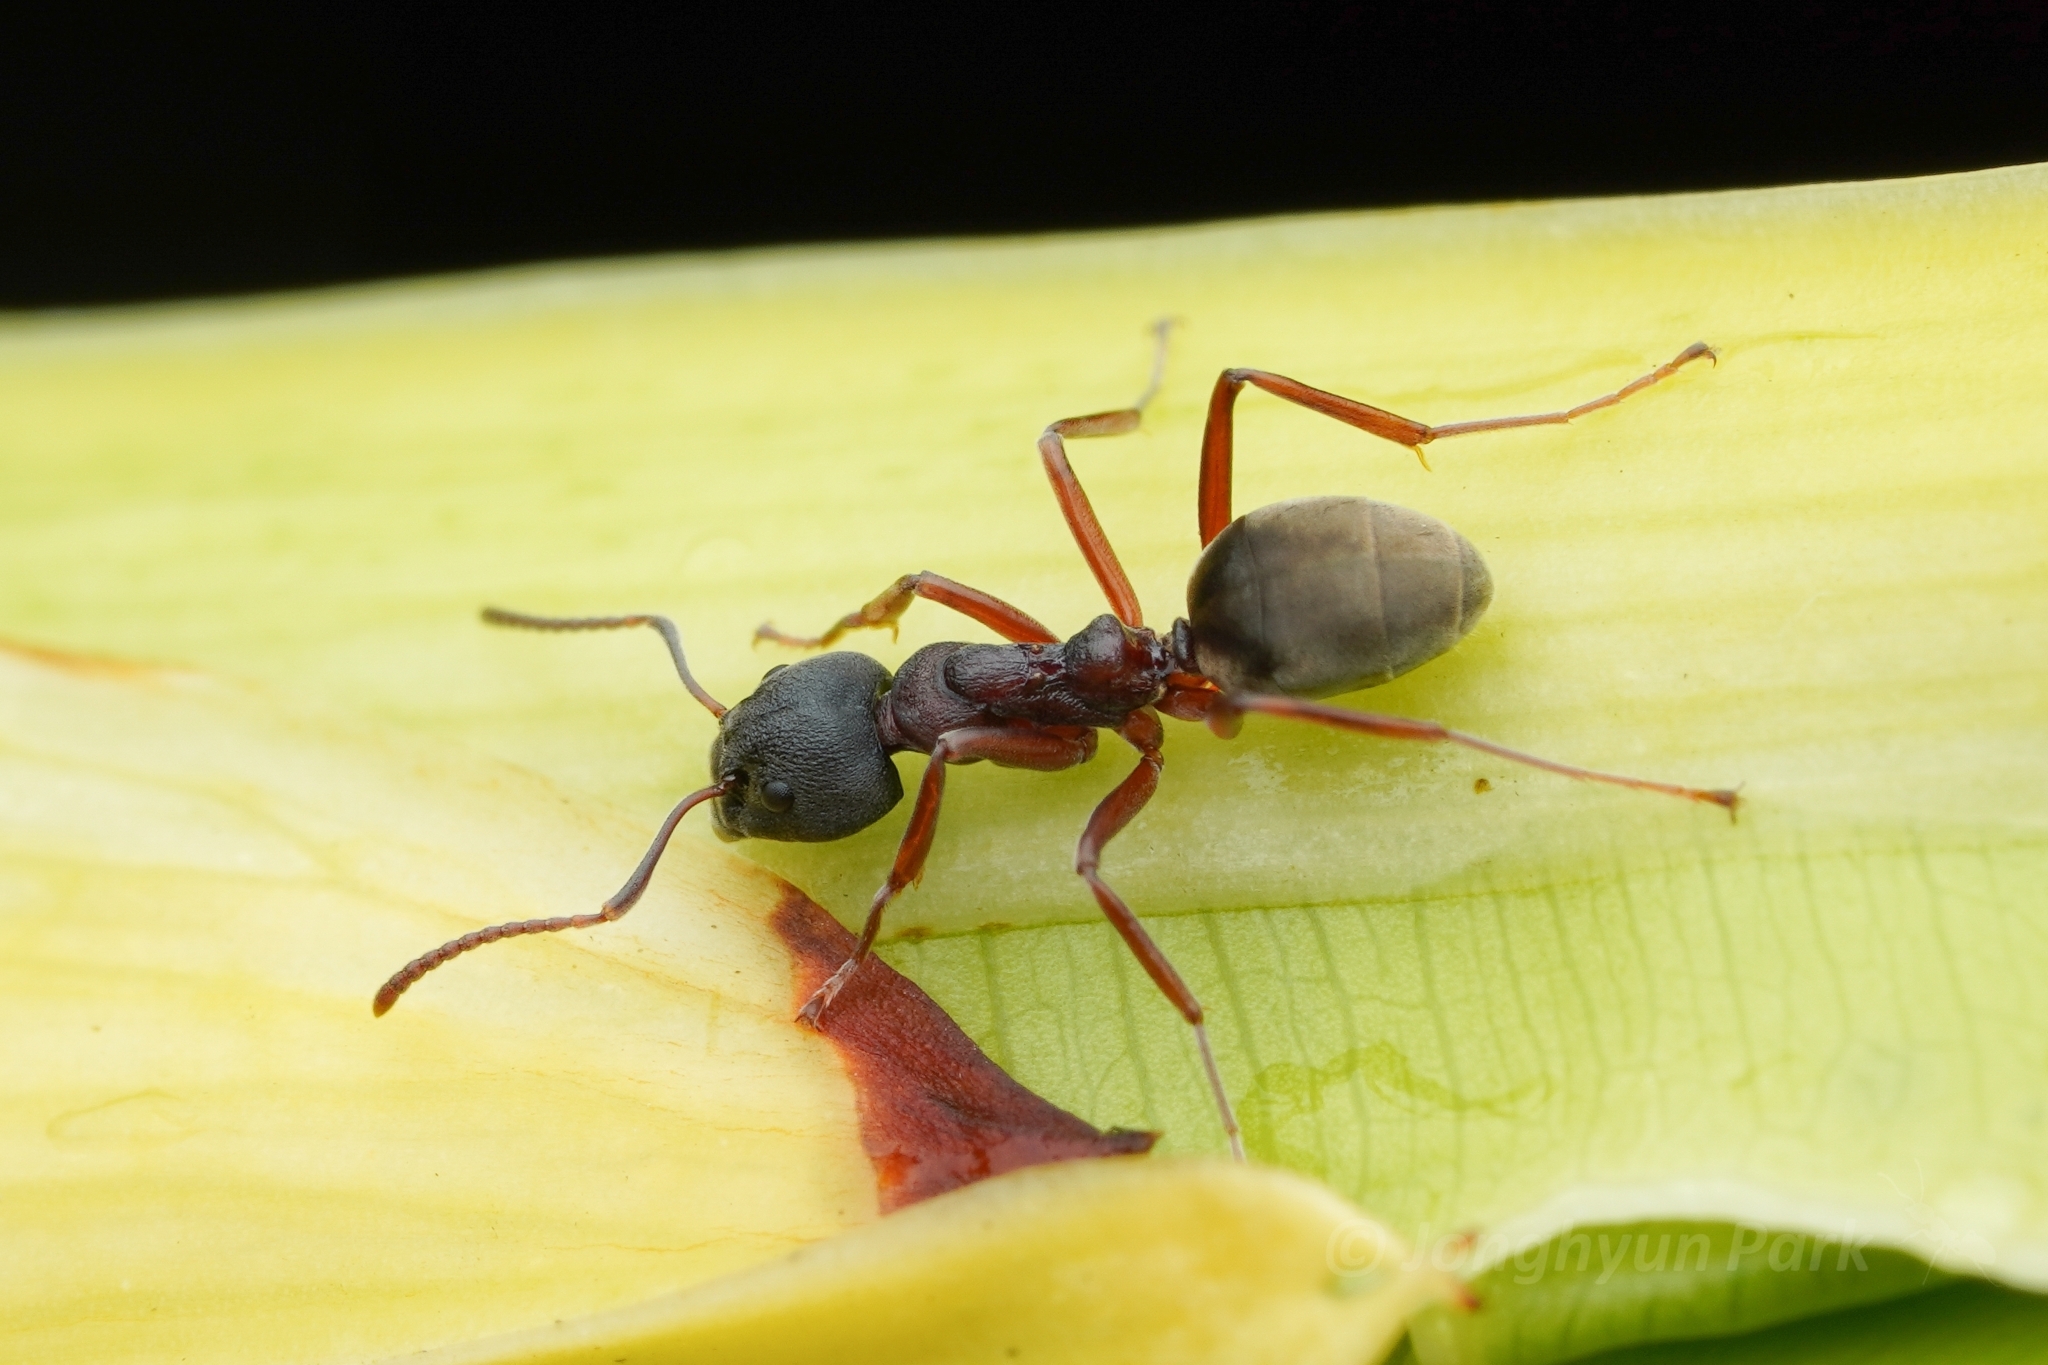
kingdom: Animalia
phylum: Arthropoda
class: Insecta
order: Hymenoptera
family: Formicidae
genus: Dolichoderus
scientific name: Dolichoderus
